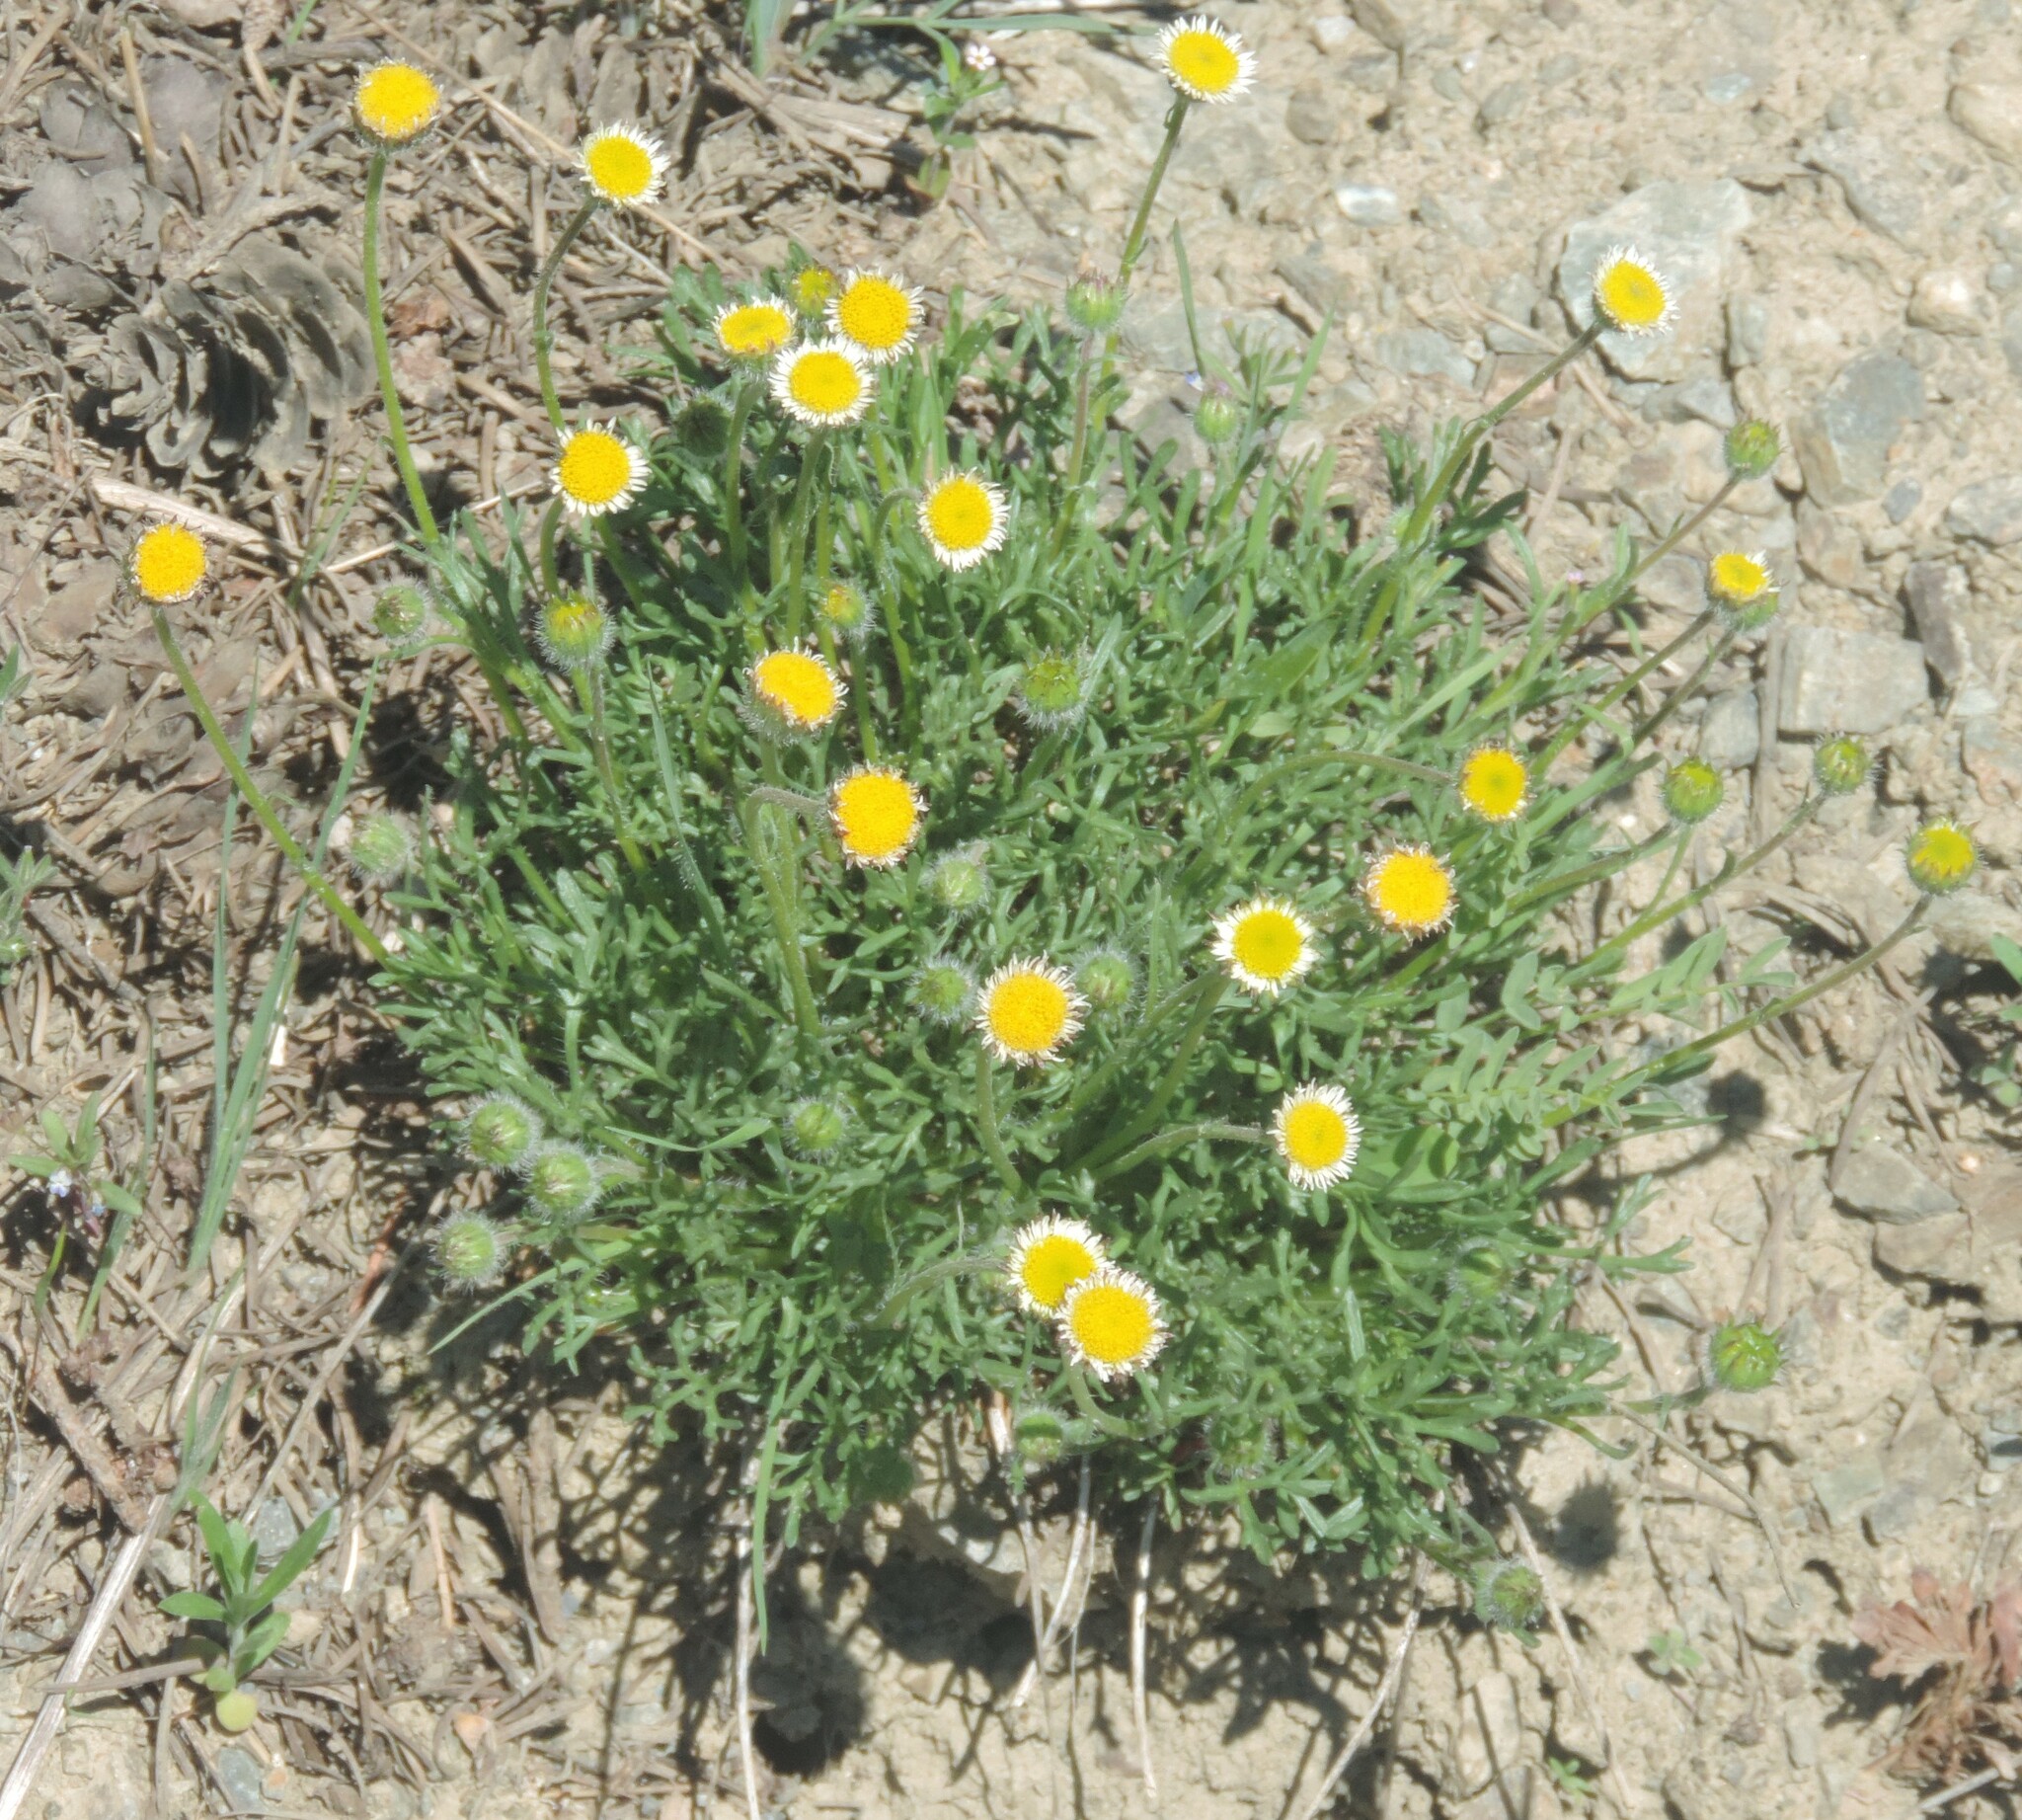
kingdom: Plantae
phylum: Tracheophyta
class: Magnoliopsida
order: Asterales
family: Asteraceae
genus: Erigeron
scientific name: Erigeron compositus
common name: Dwarf mountain fleabane
